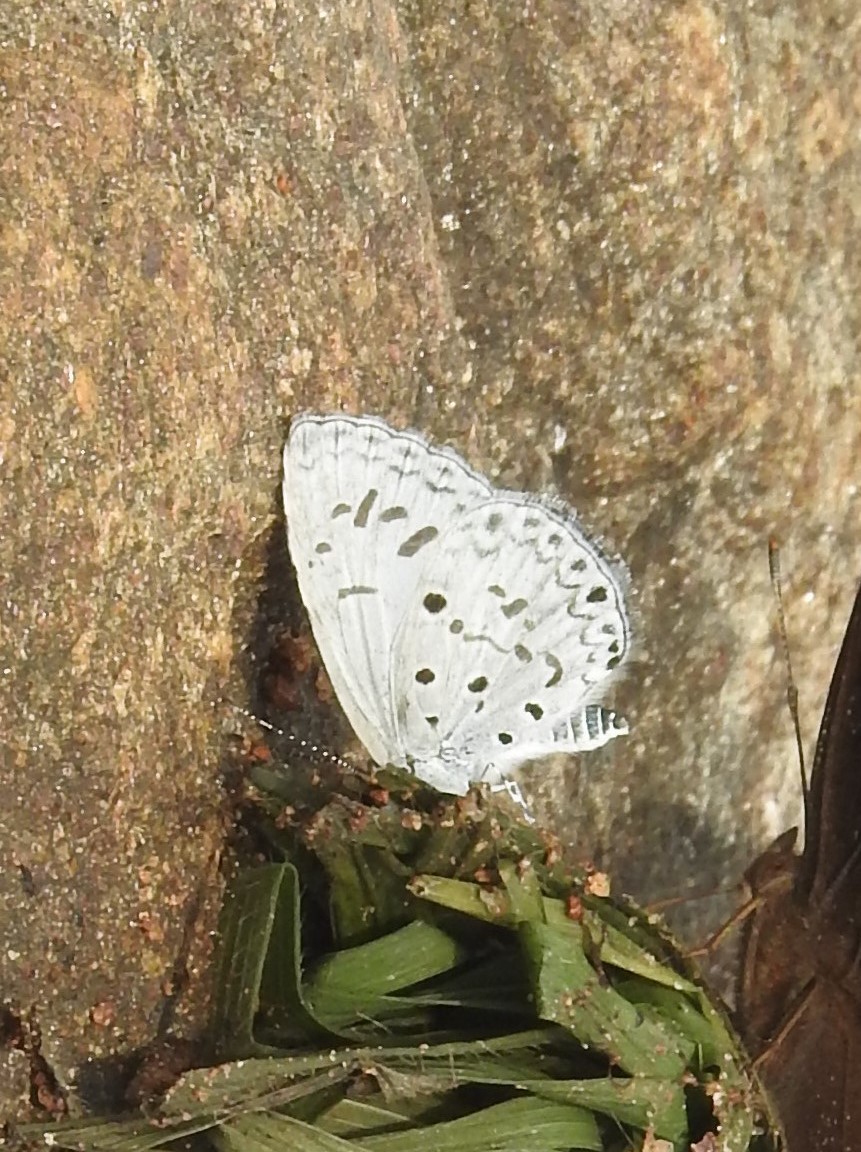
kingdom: Animalia
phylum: Arthropoda
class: Insecta
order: Lepidoptera
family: Lycaenidae
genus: Acytolepis
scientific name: Acytolepis puspa
